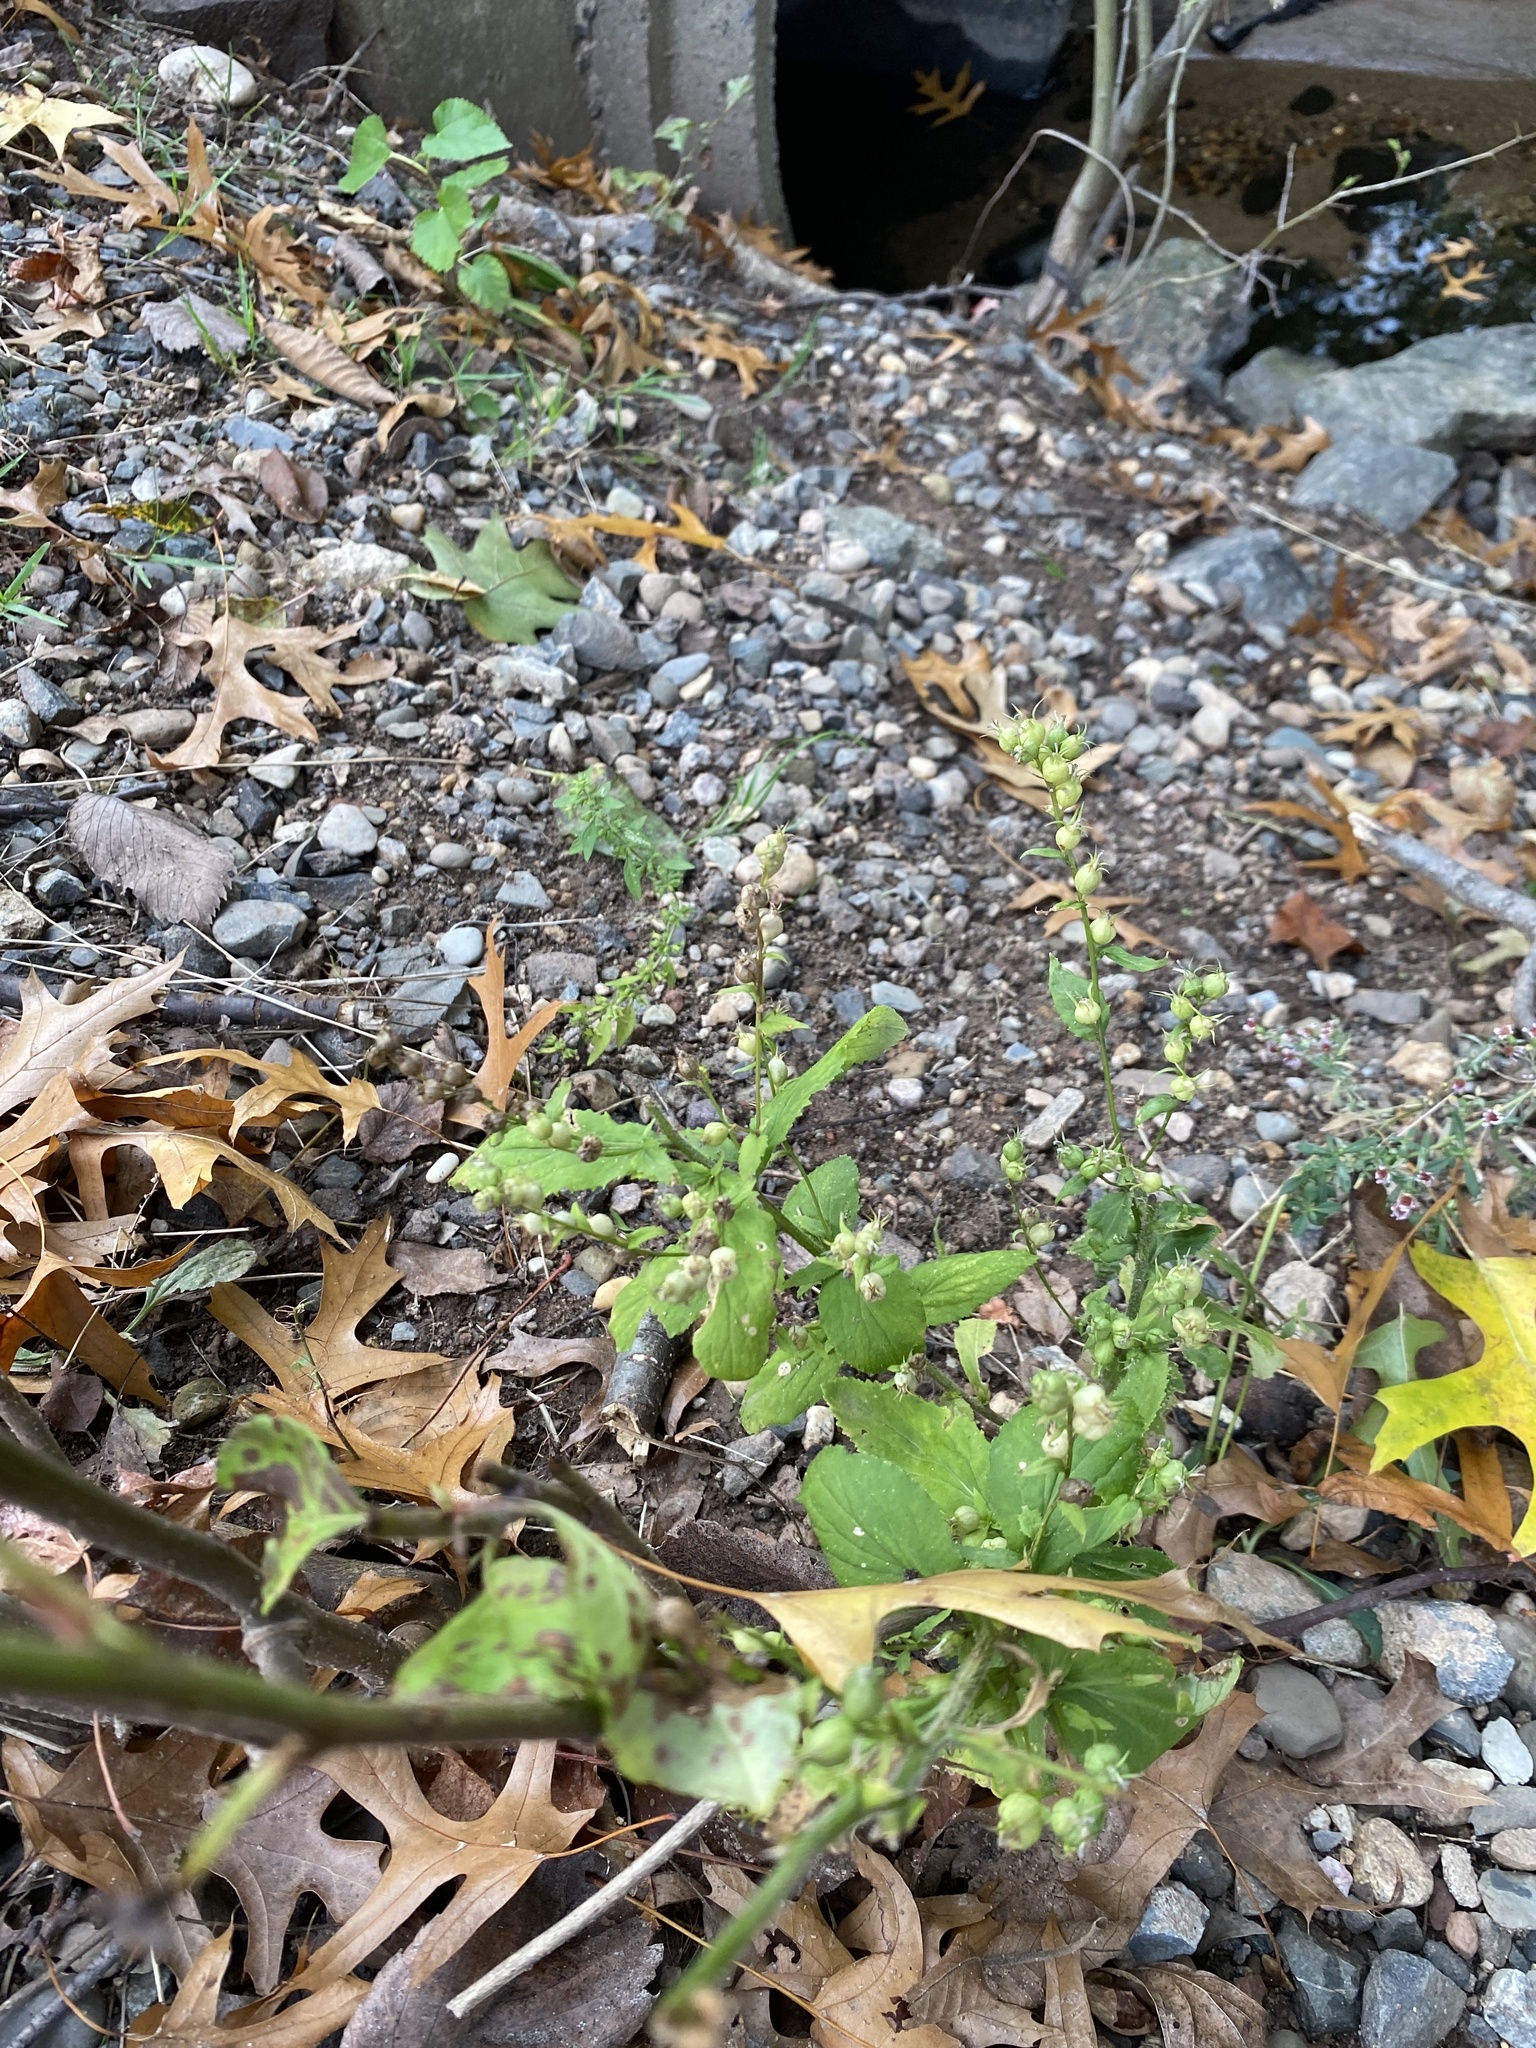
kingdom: Plantae
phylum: Tracheophyta
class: Magnoliopsida
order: Asterales
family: Campanulaceae
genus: Lobelia
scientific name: Lobelia inflata
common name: Indian tobacco
